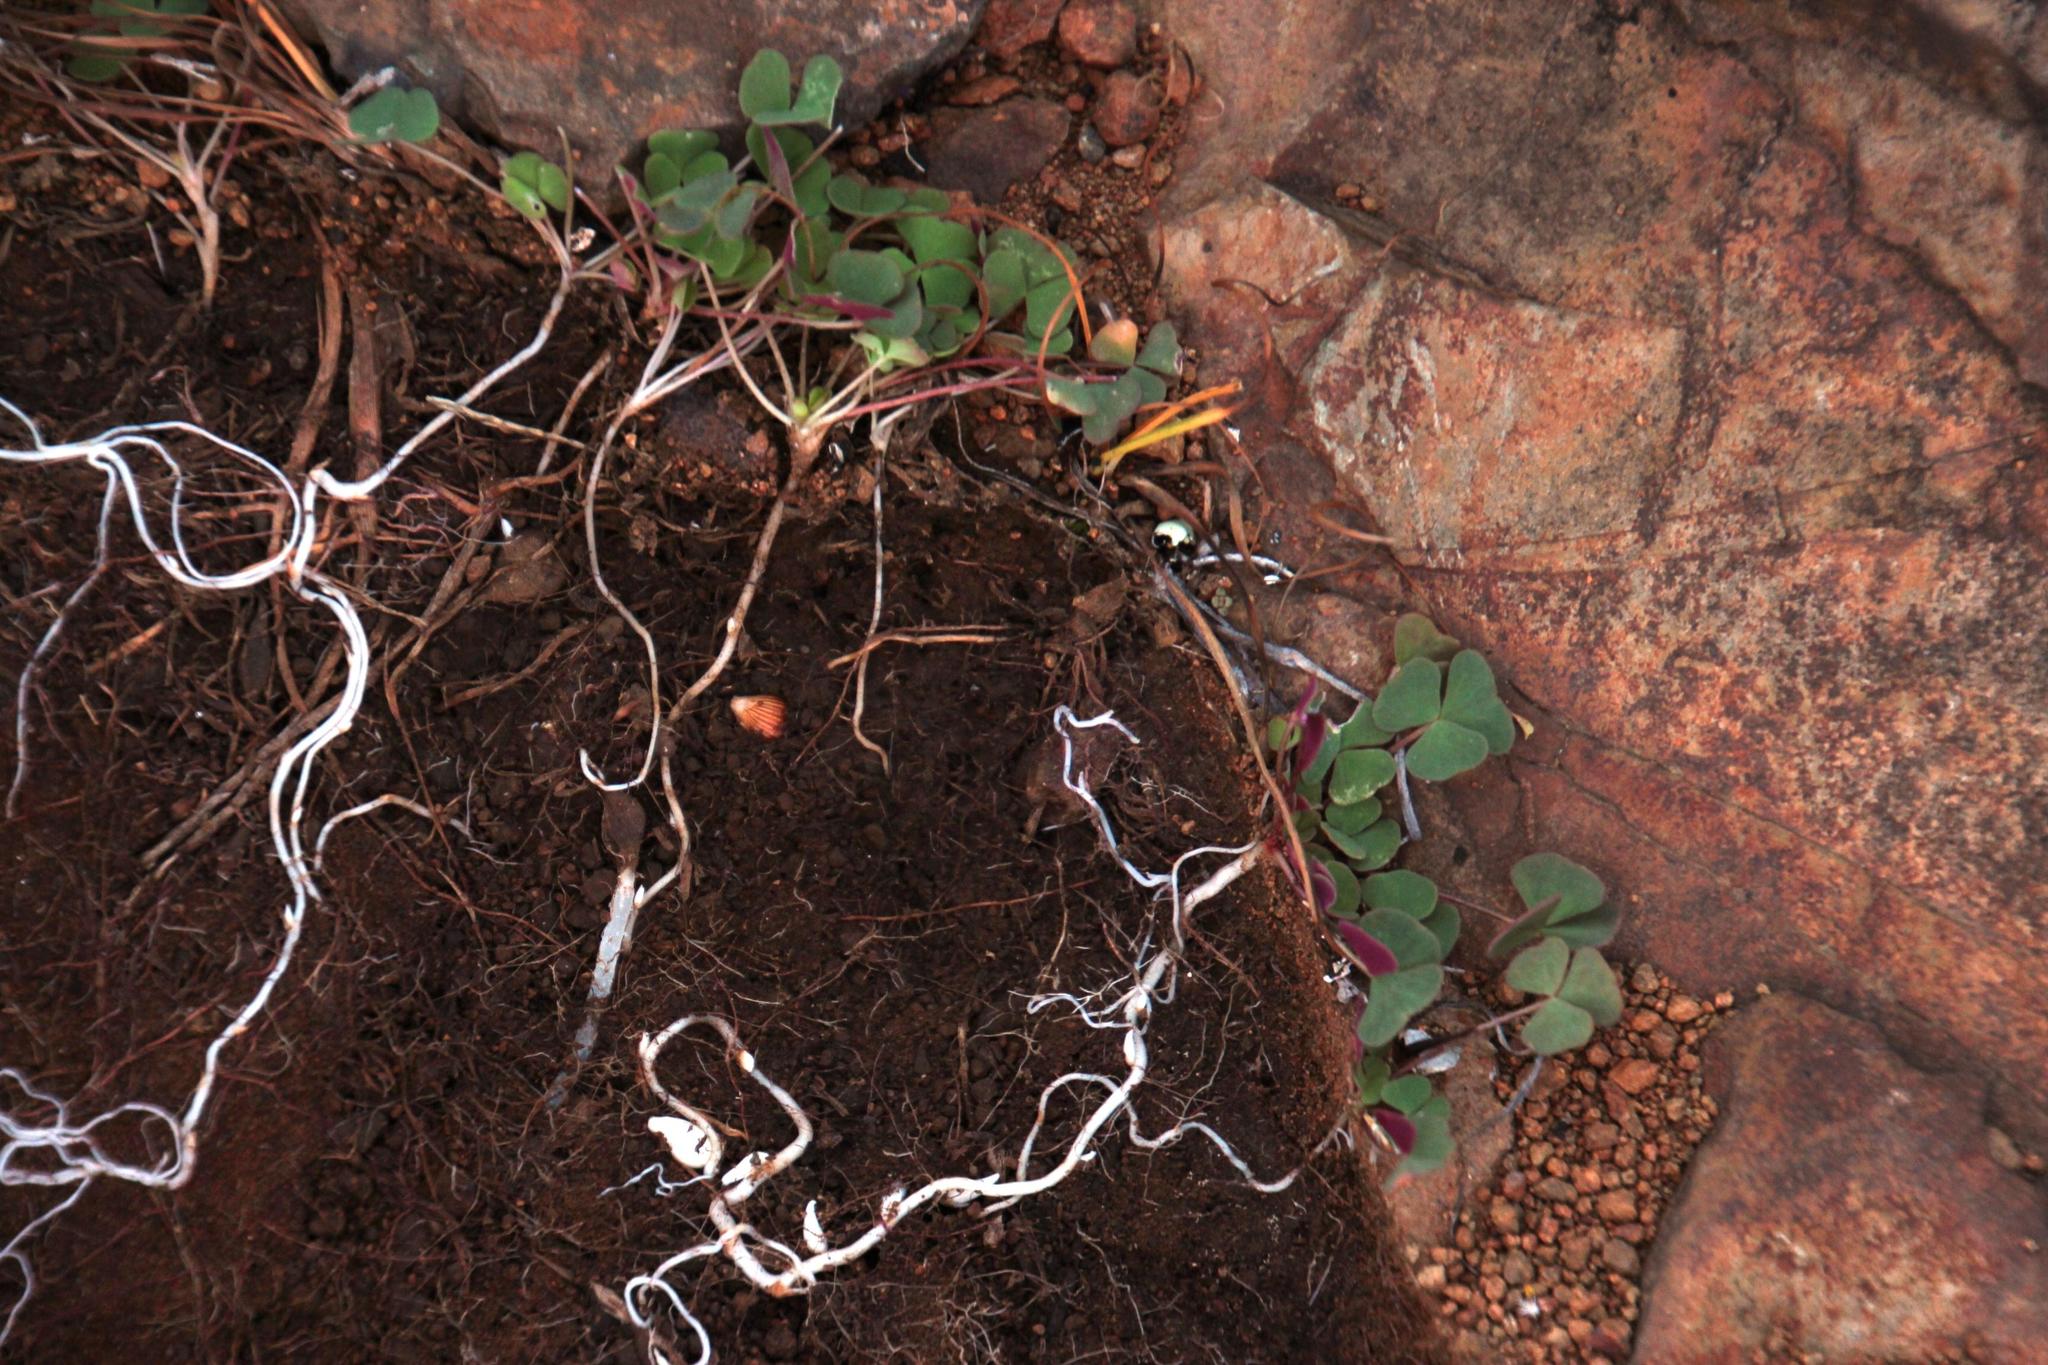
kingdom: Plantae
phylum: Tracheophyta
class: Magnoliopsida
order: Oxalidales
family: Oxalidaceae
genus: Oxalis
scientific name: Oxalis depressa
